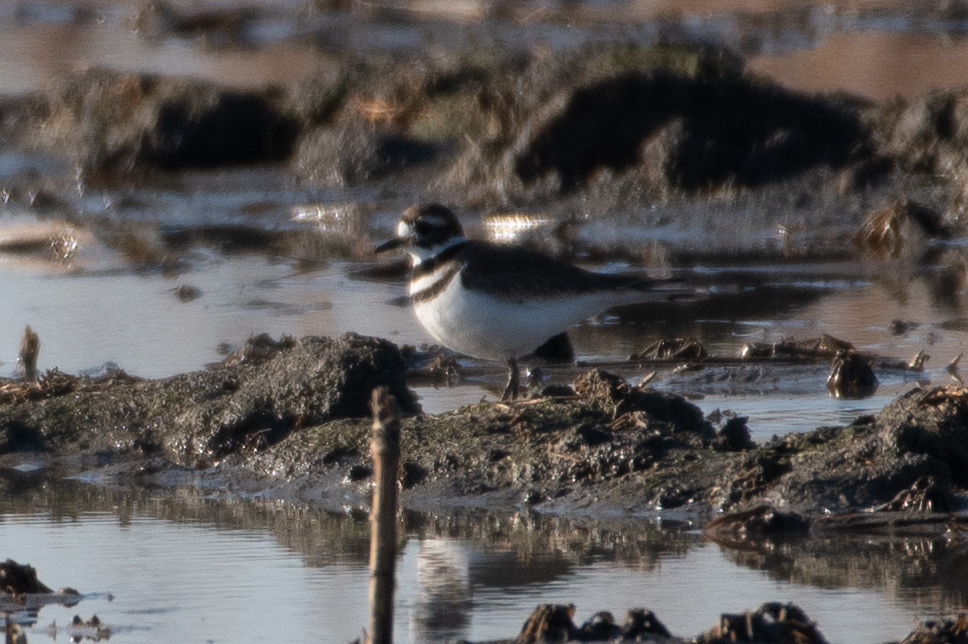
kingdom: Animalia
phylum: Chordata
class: Aves
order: Charadriiformes
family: Charadriidae
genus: Charadrius
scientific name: Charadrius vociferus
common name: Killdeer
